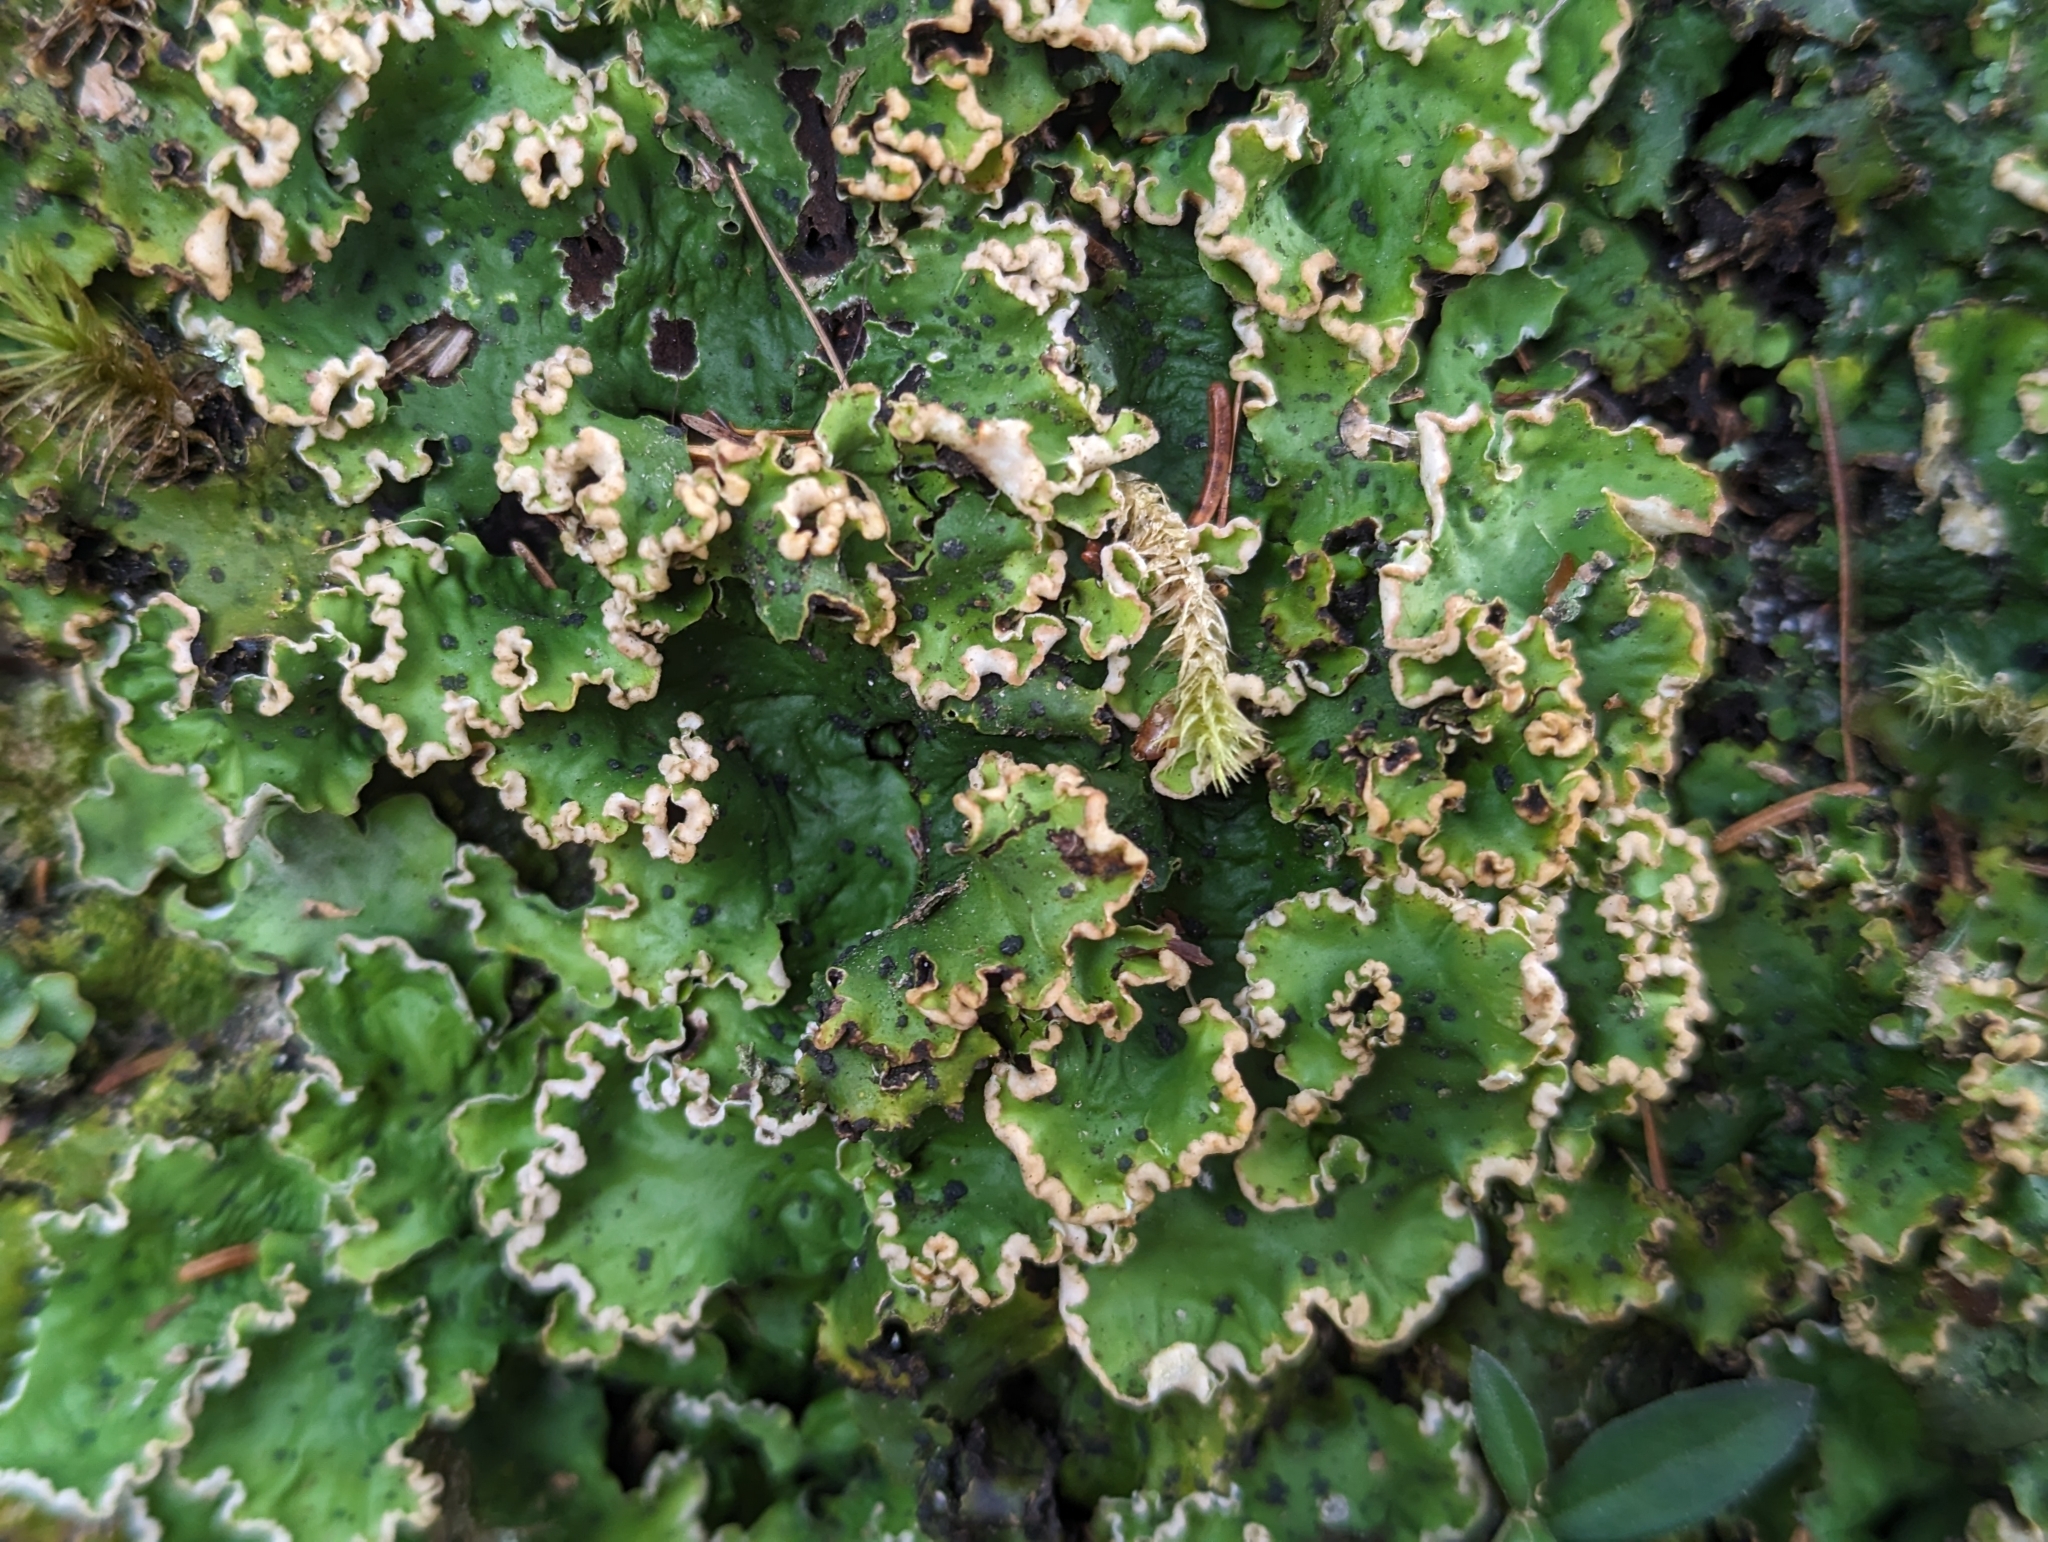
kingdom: Fungi
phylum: Ascomycota
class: Lecanoromycetes
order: Peltigerales
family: Peltigeraceae
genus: Peltigera
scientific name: Peltigera leucophlebia
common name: Ruffled freckle pelt lichen
